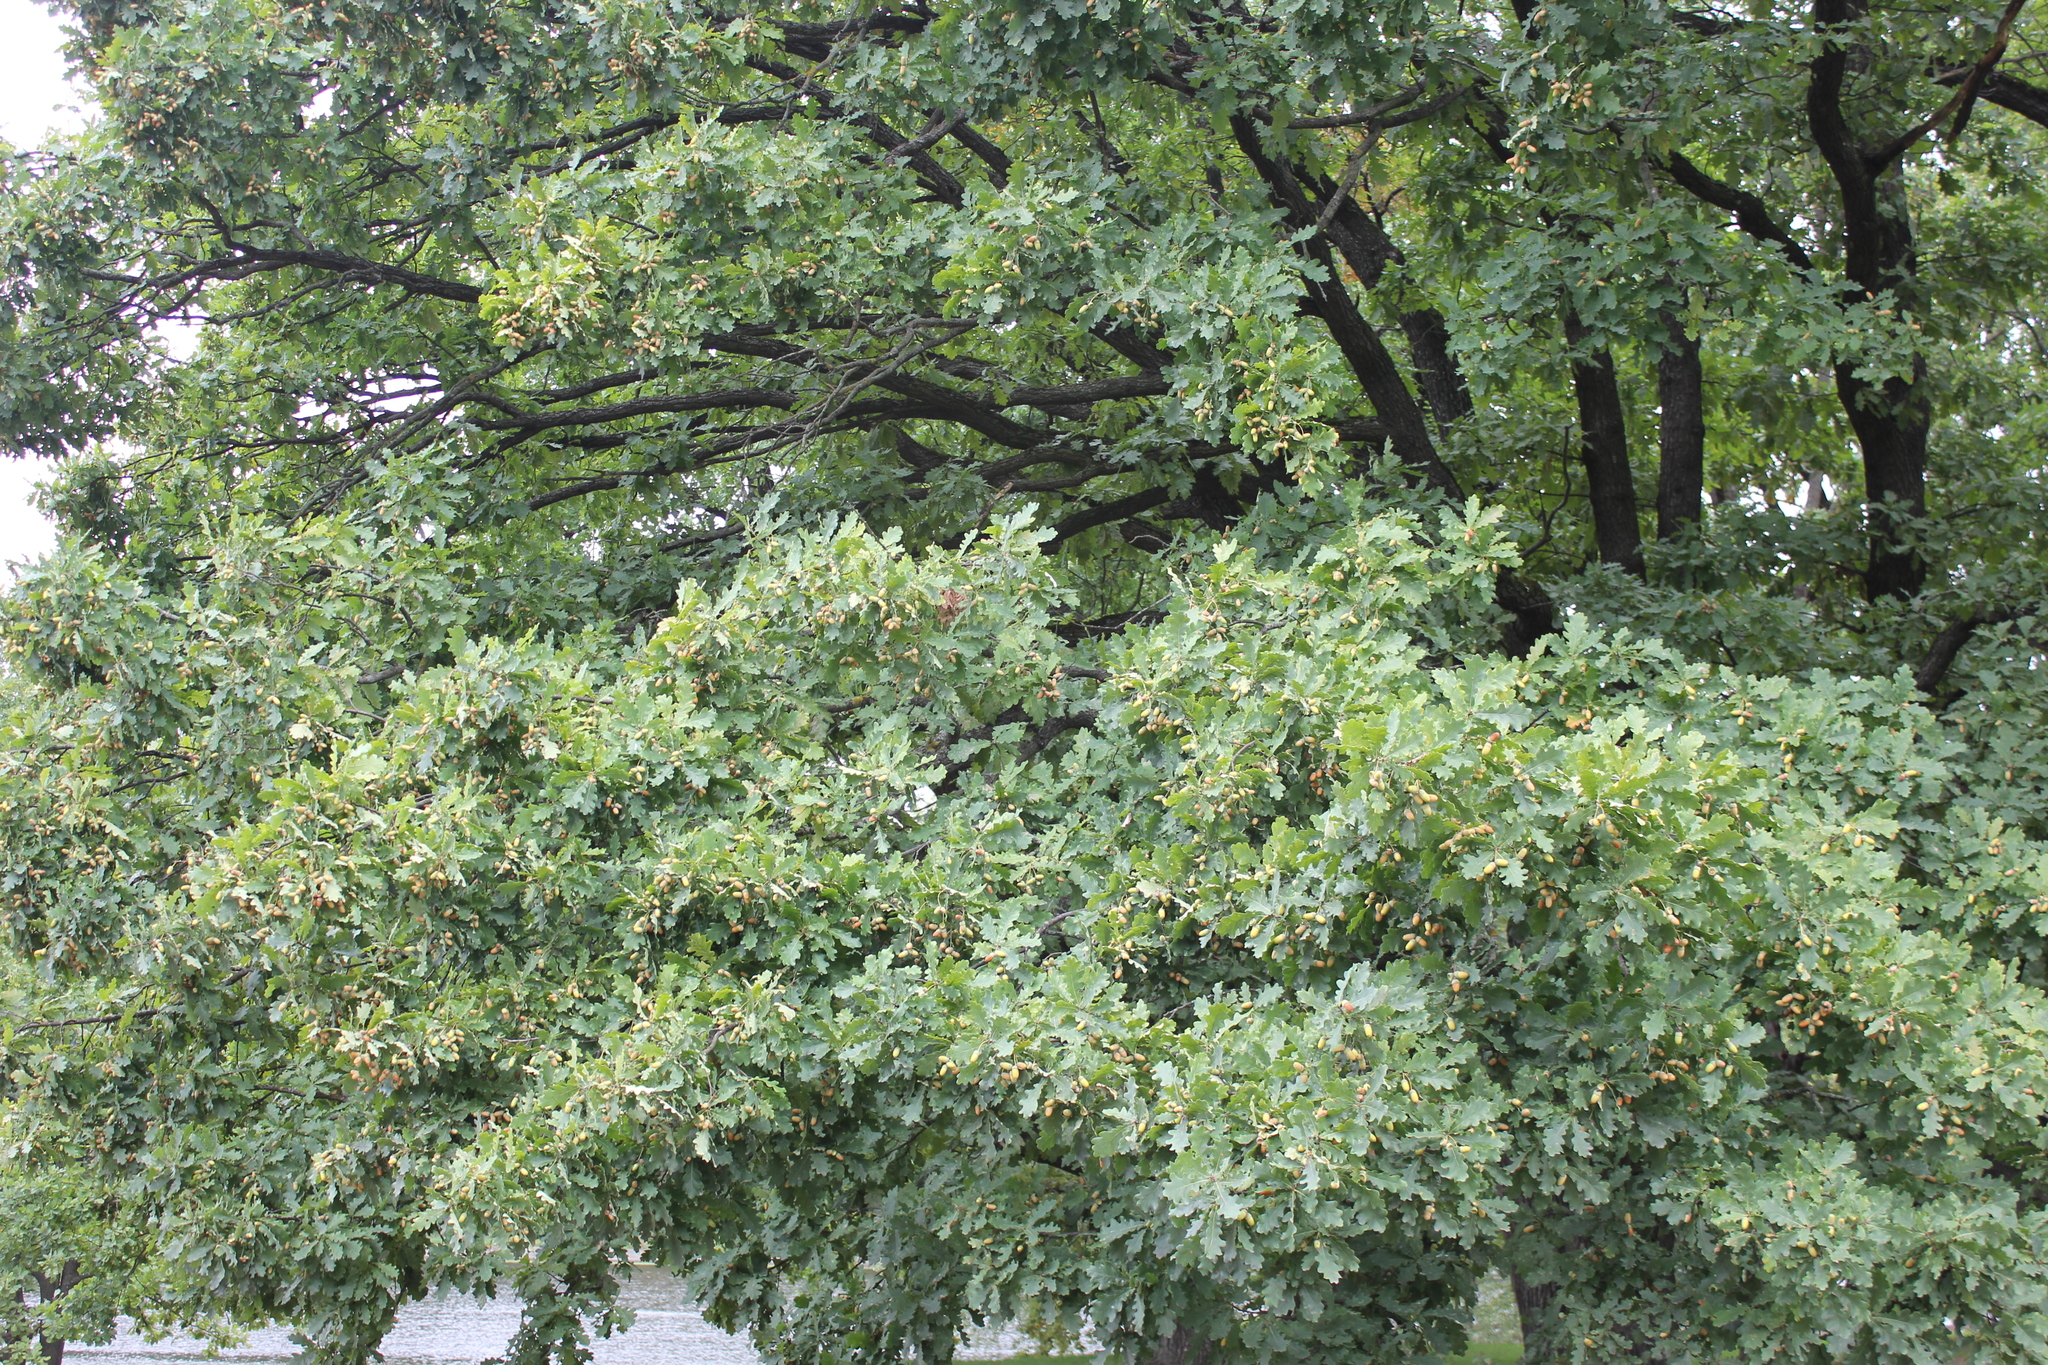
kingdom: Plantae
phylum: Tracheophyta
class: Magnoliopsida
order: Fagales
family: Fagaceae
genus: Quercus
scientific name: Quercus robur
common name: Pedunculate oak
